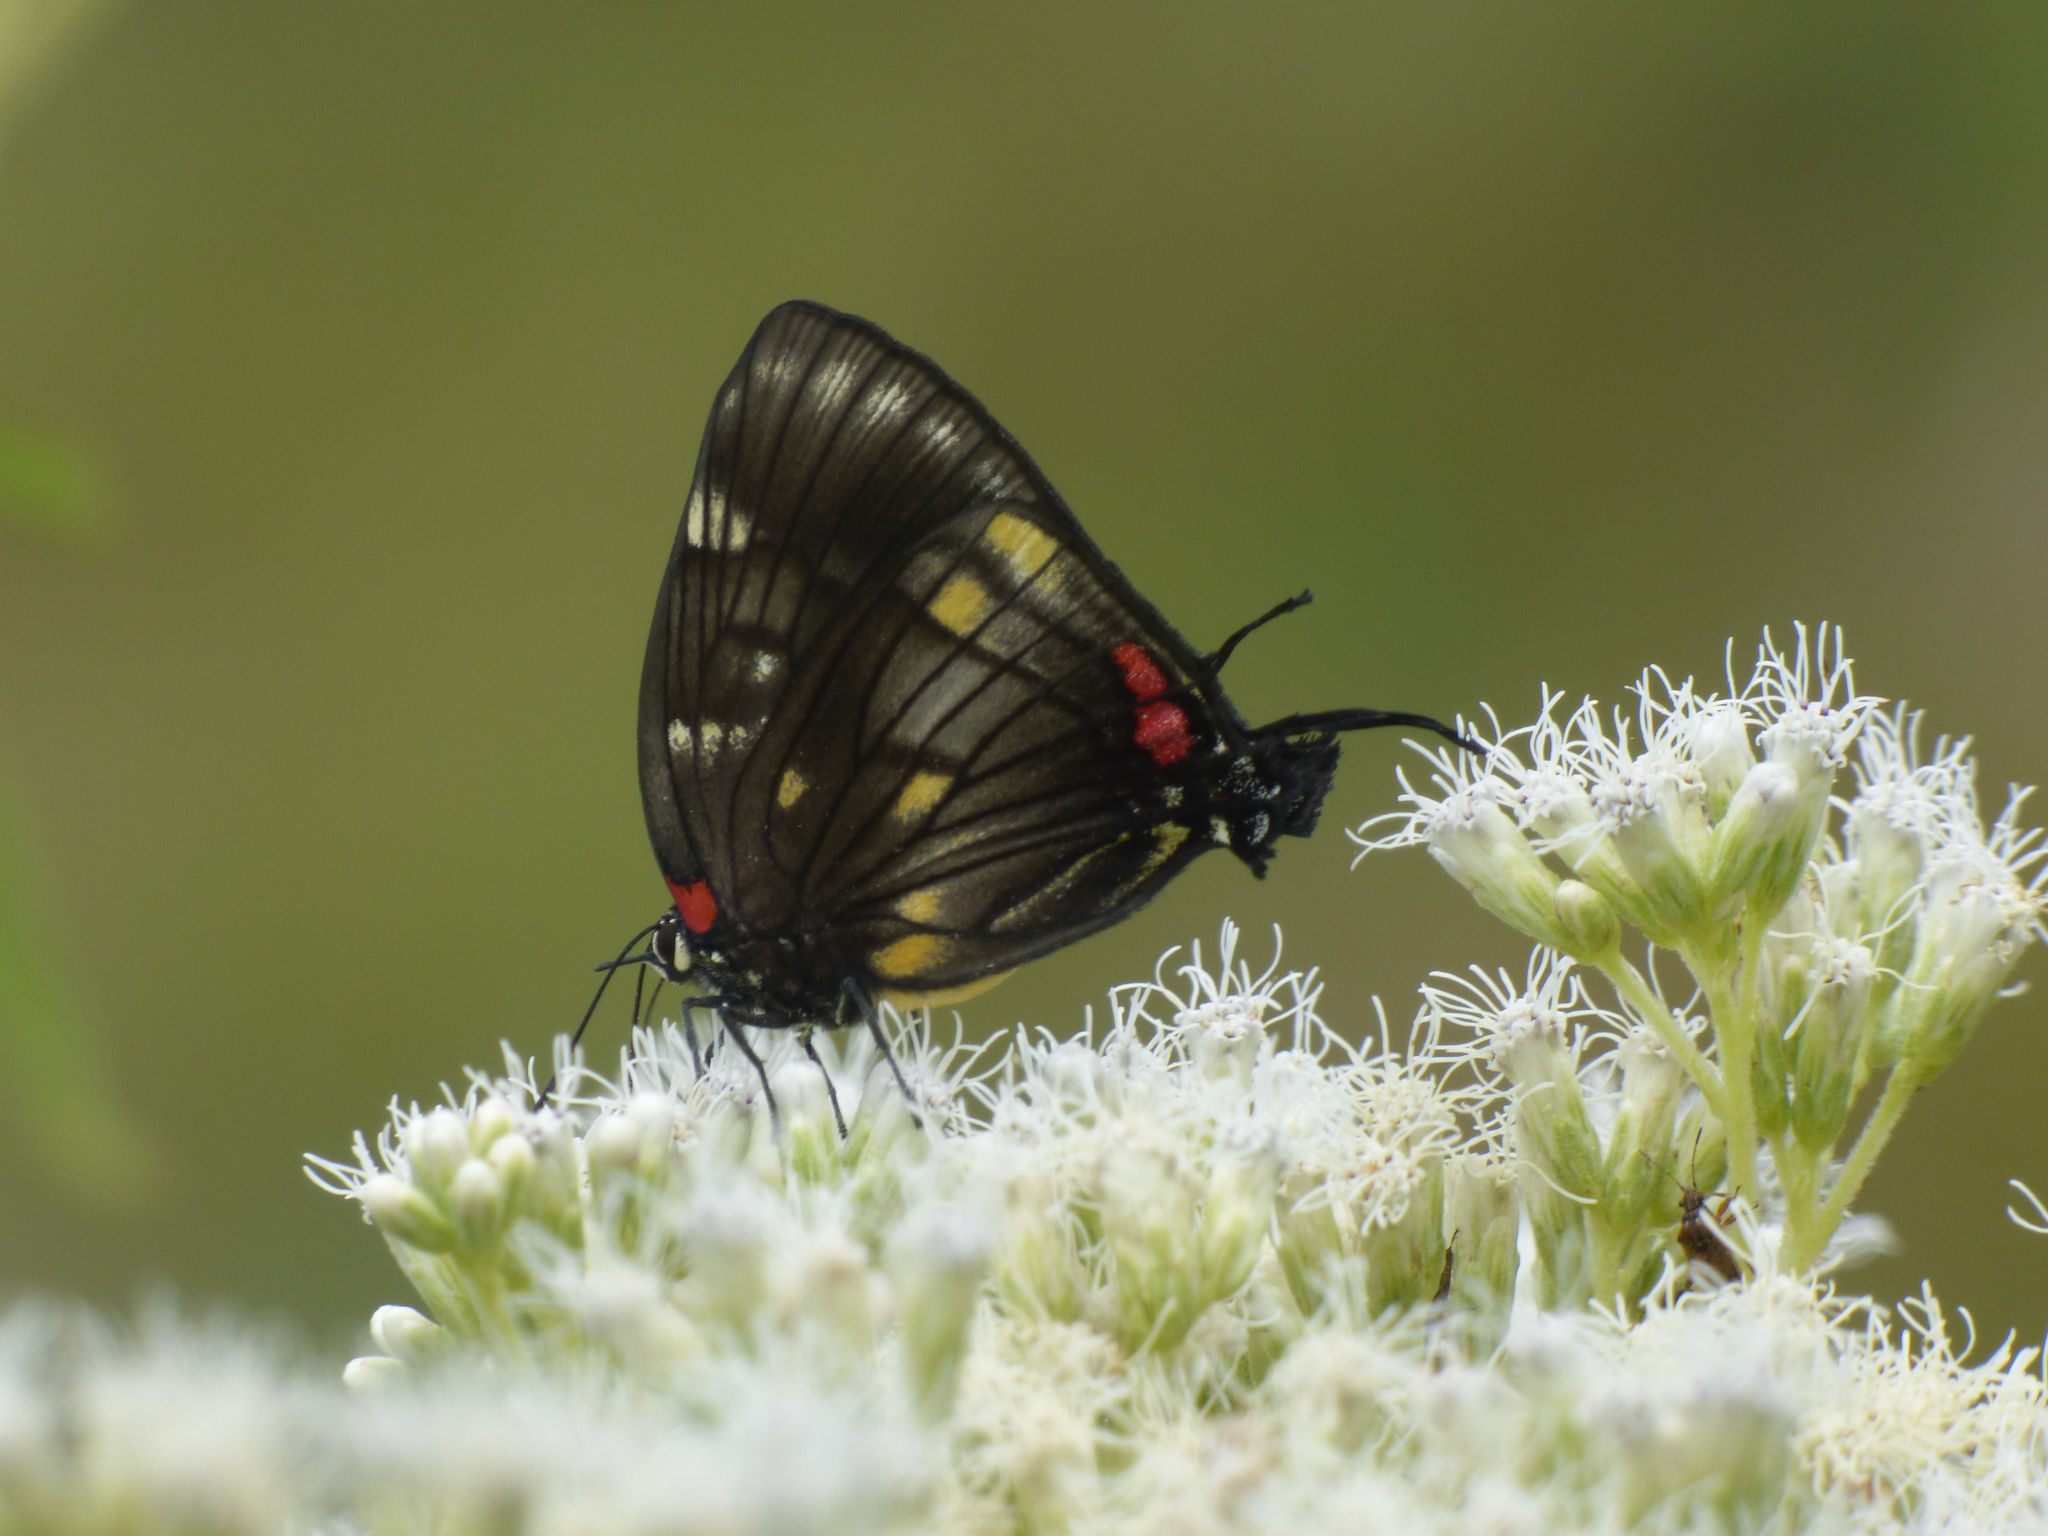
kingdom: Animalia
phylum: Arthropoda
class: Insecta
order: Lepidoptera
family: Lycaenidae
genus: Panthiades
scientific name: Panthiades paphlagon
